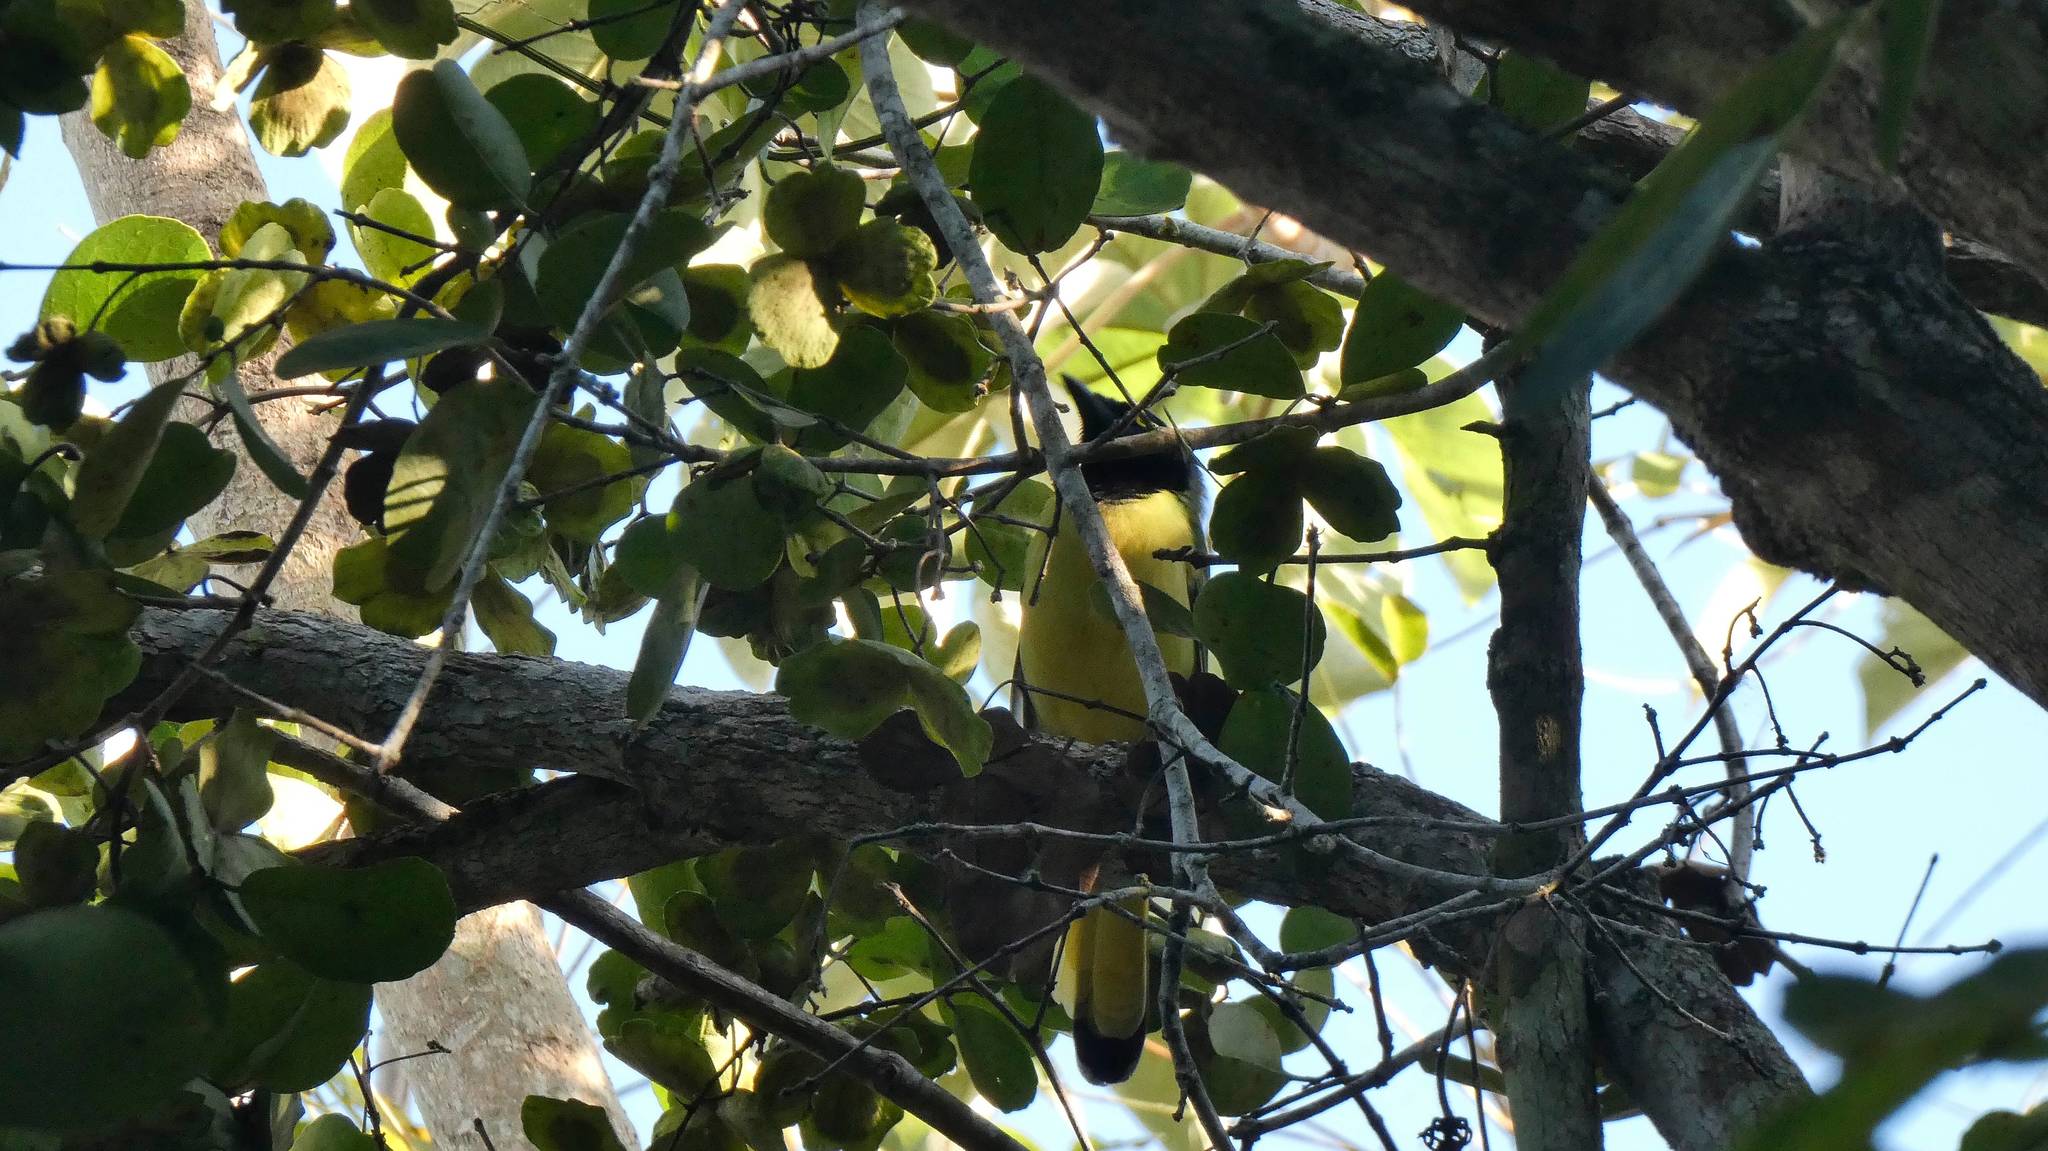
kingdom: Animalia
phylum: Chordata
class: Aves
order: Passeriformes
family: Corvidae
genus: Cyanocorax
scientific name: Cyanocorax yncas
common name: Green jay
